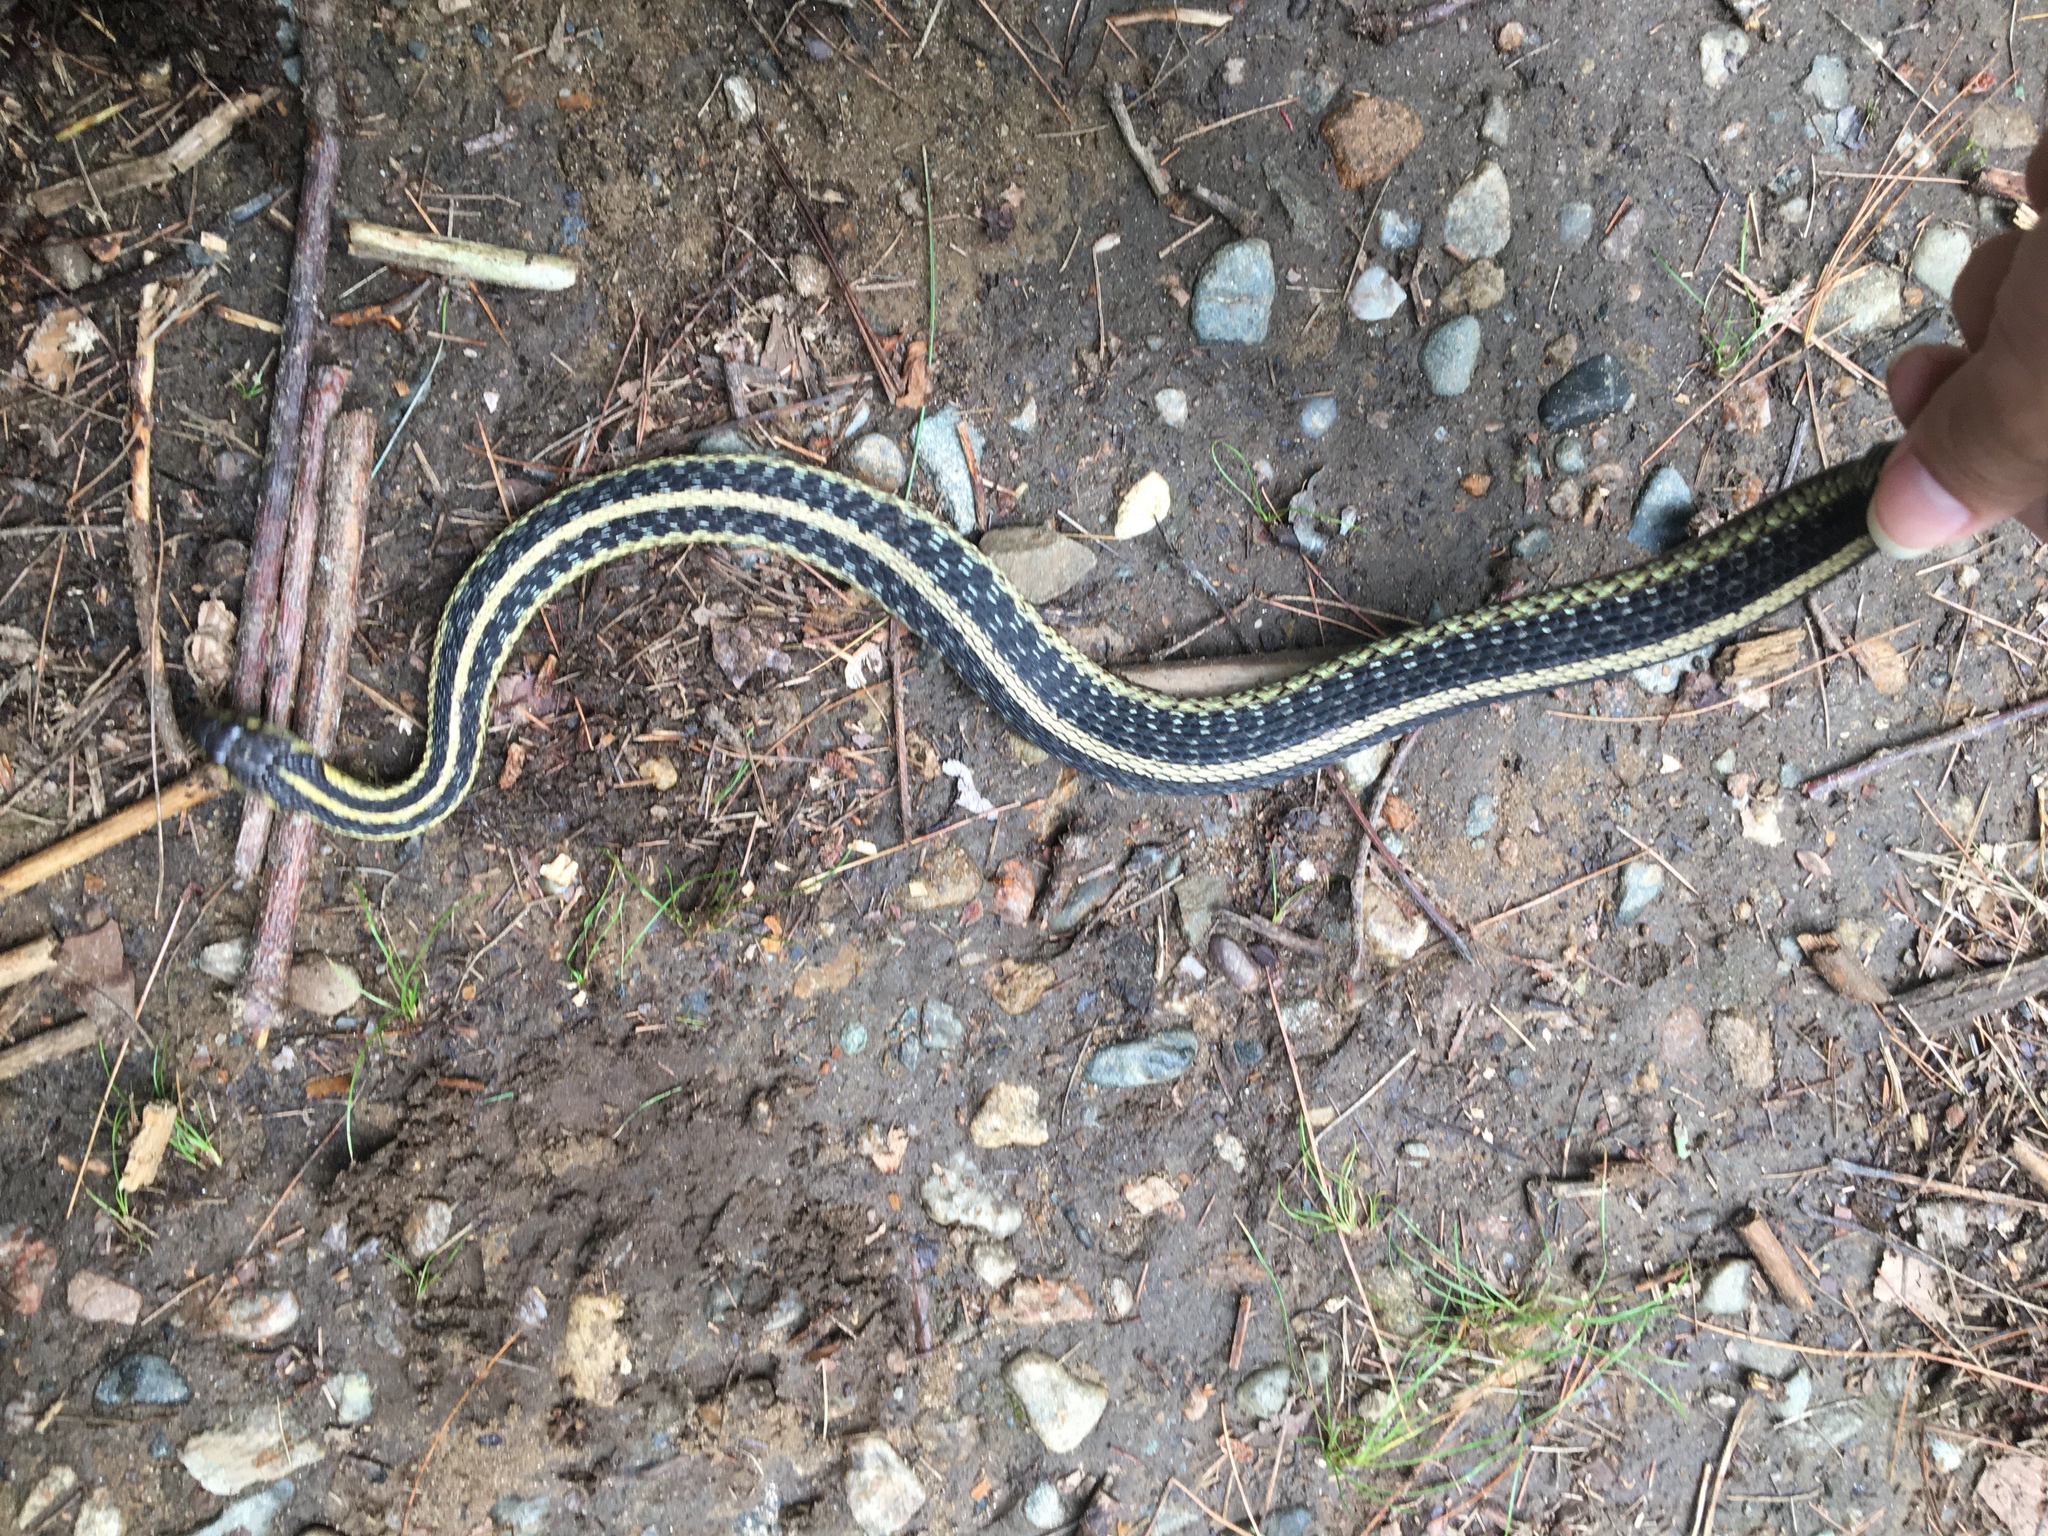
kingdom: Animalia
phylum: Chordata
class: Squamata
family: Colubridae
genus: Thamnophis
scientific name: Thamnophis sirtalis
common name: Common garter snake
